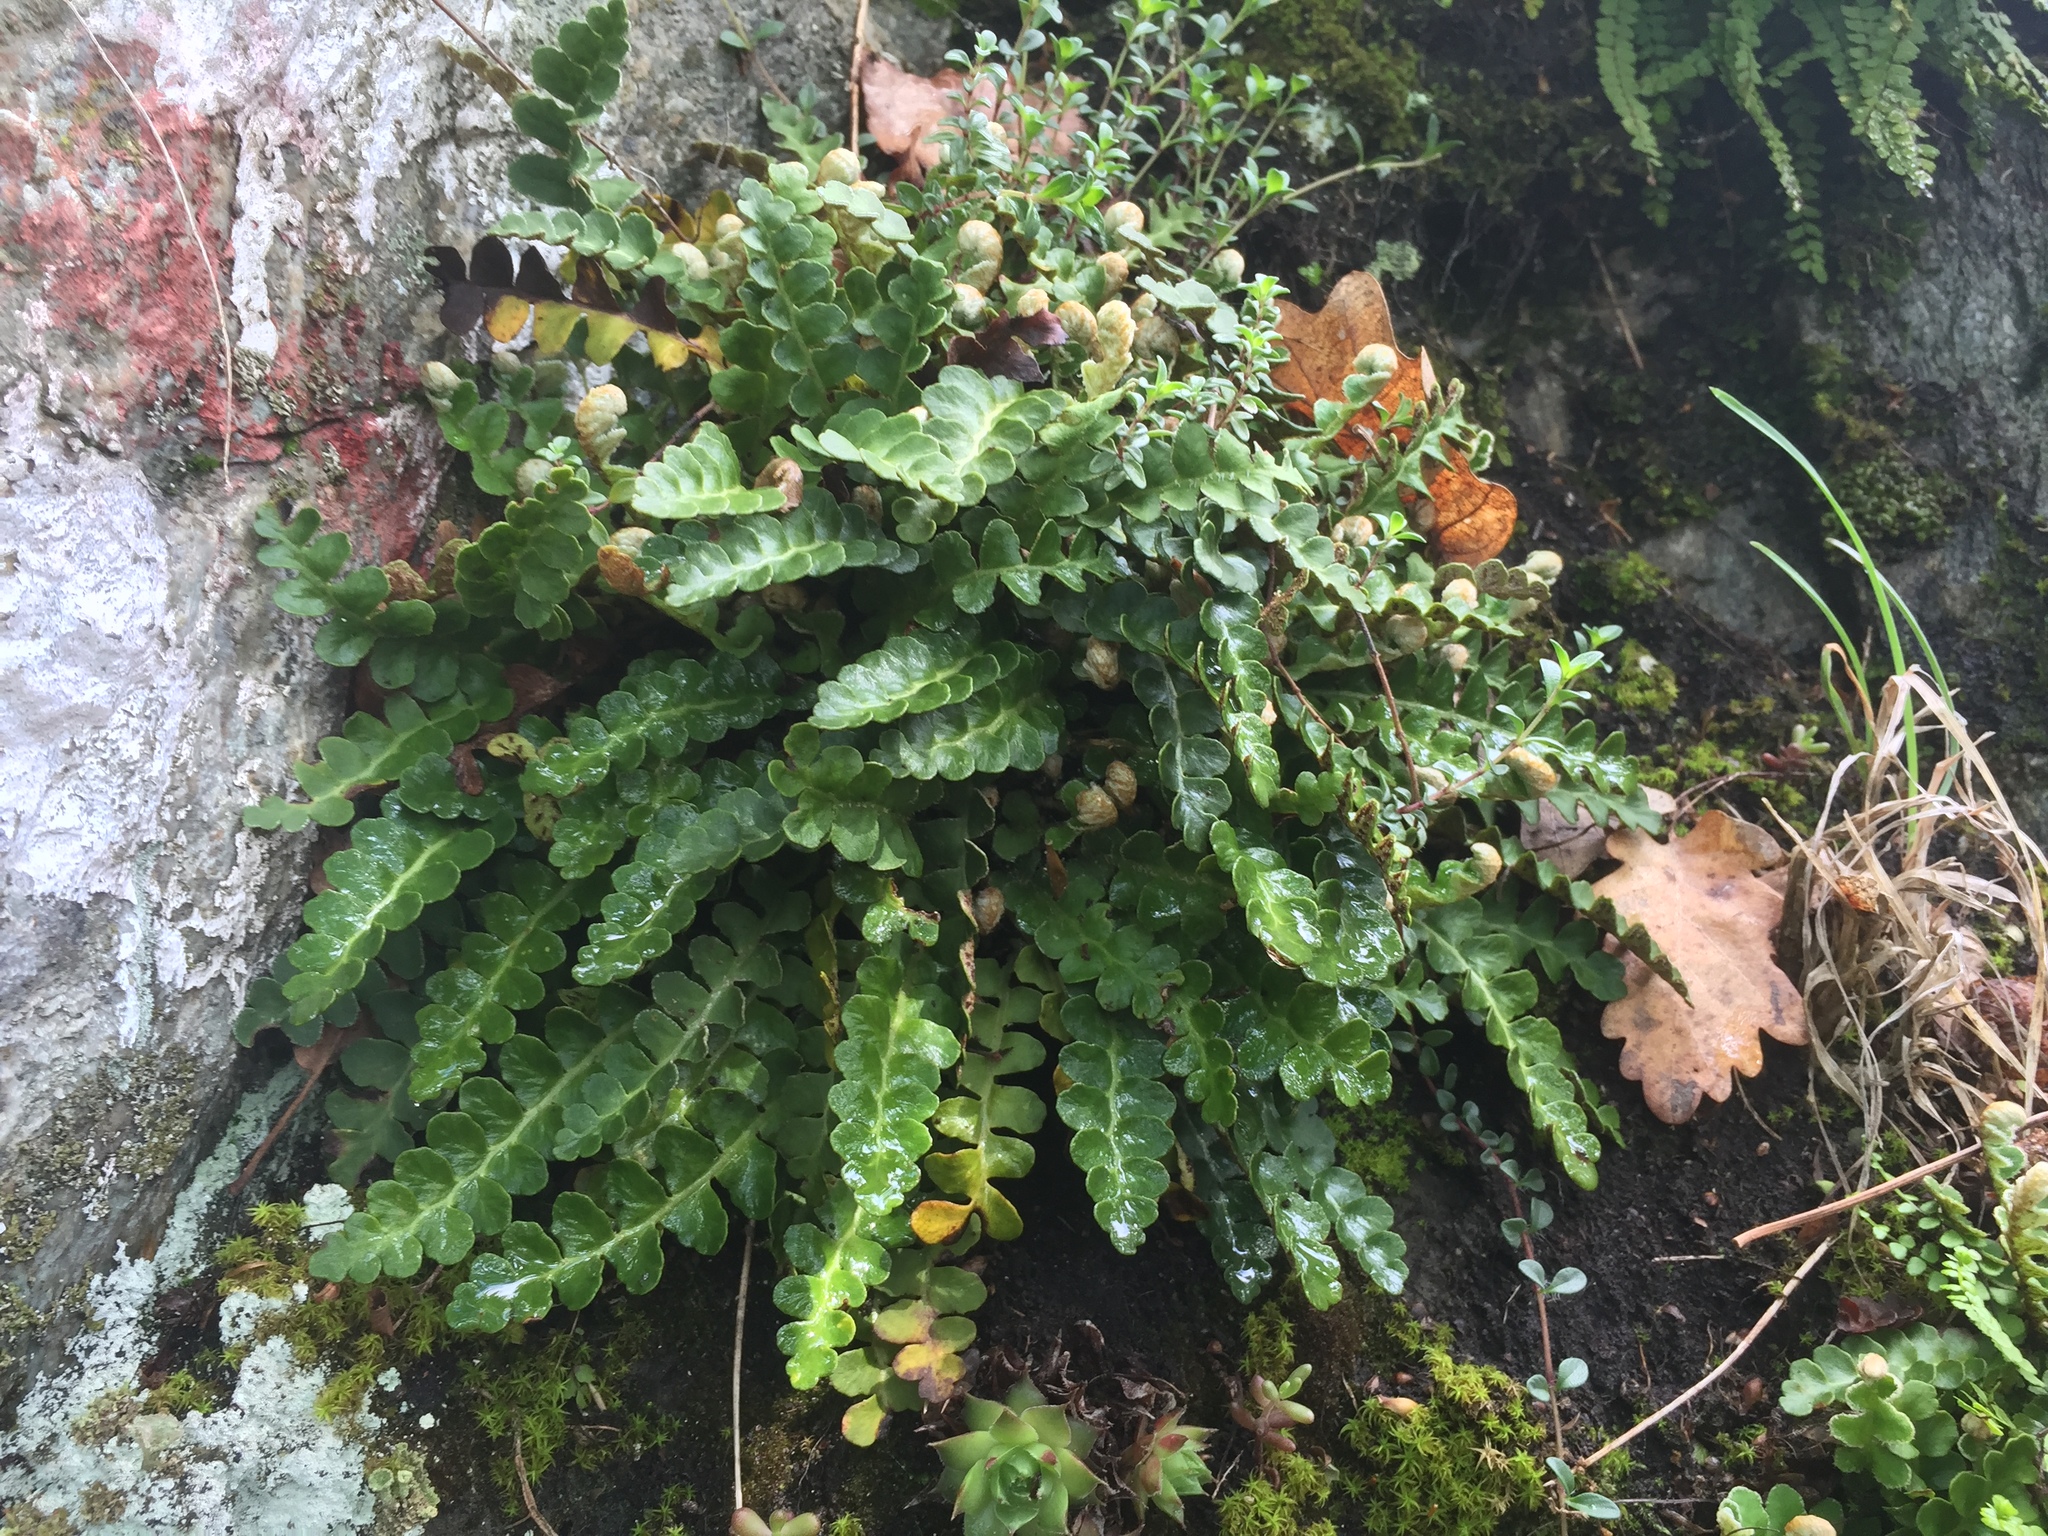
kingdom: Plantae
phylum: Tracheophyta
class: Polypodiopsida
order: Polypodiales
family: Aspleniaceae
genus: Asplenium
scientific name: Asplenium ceterach
